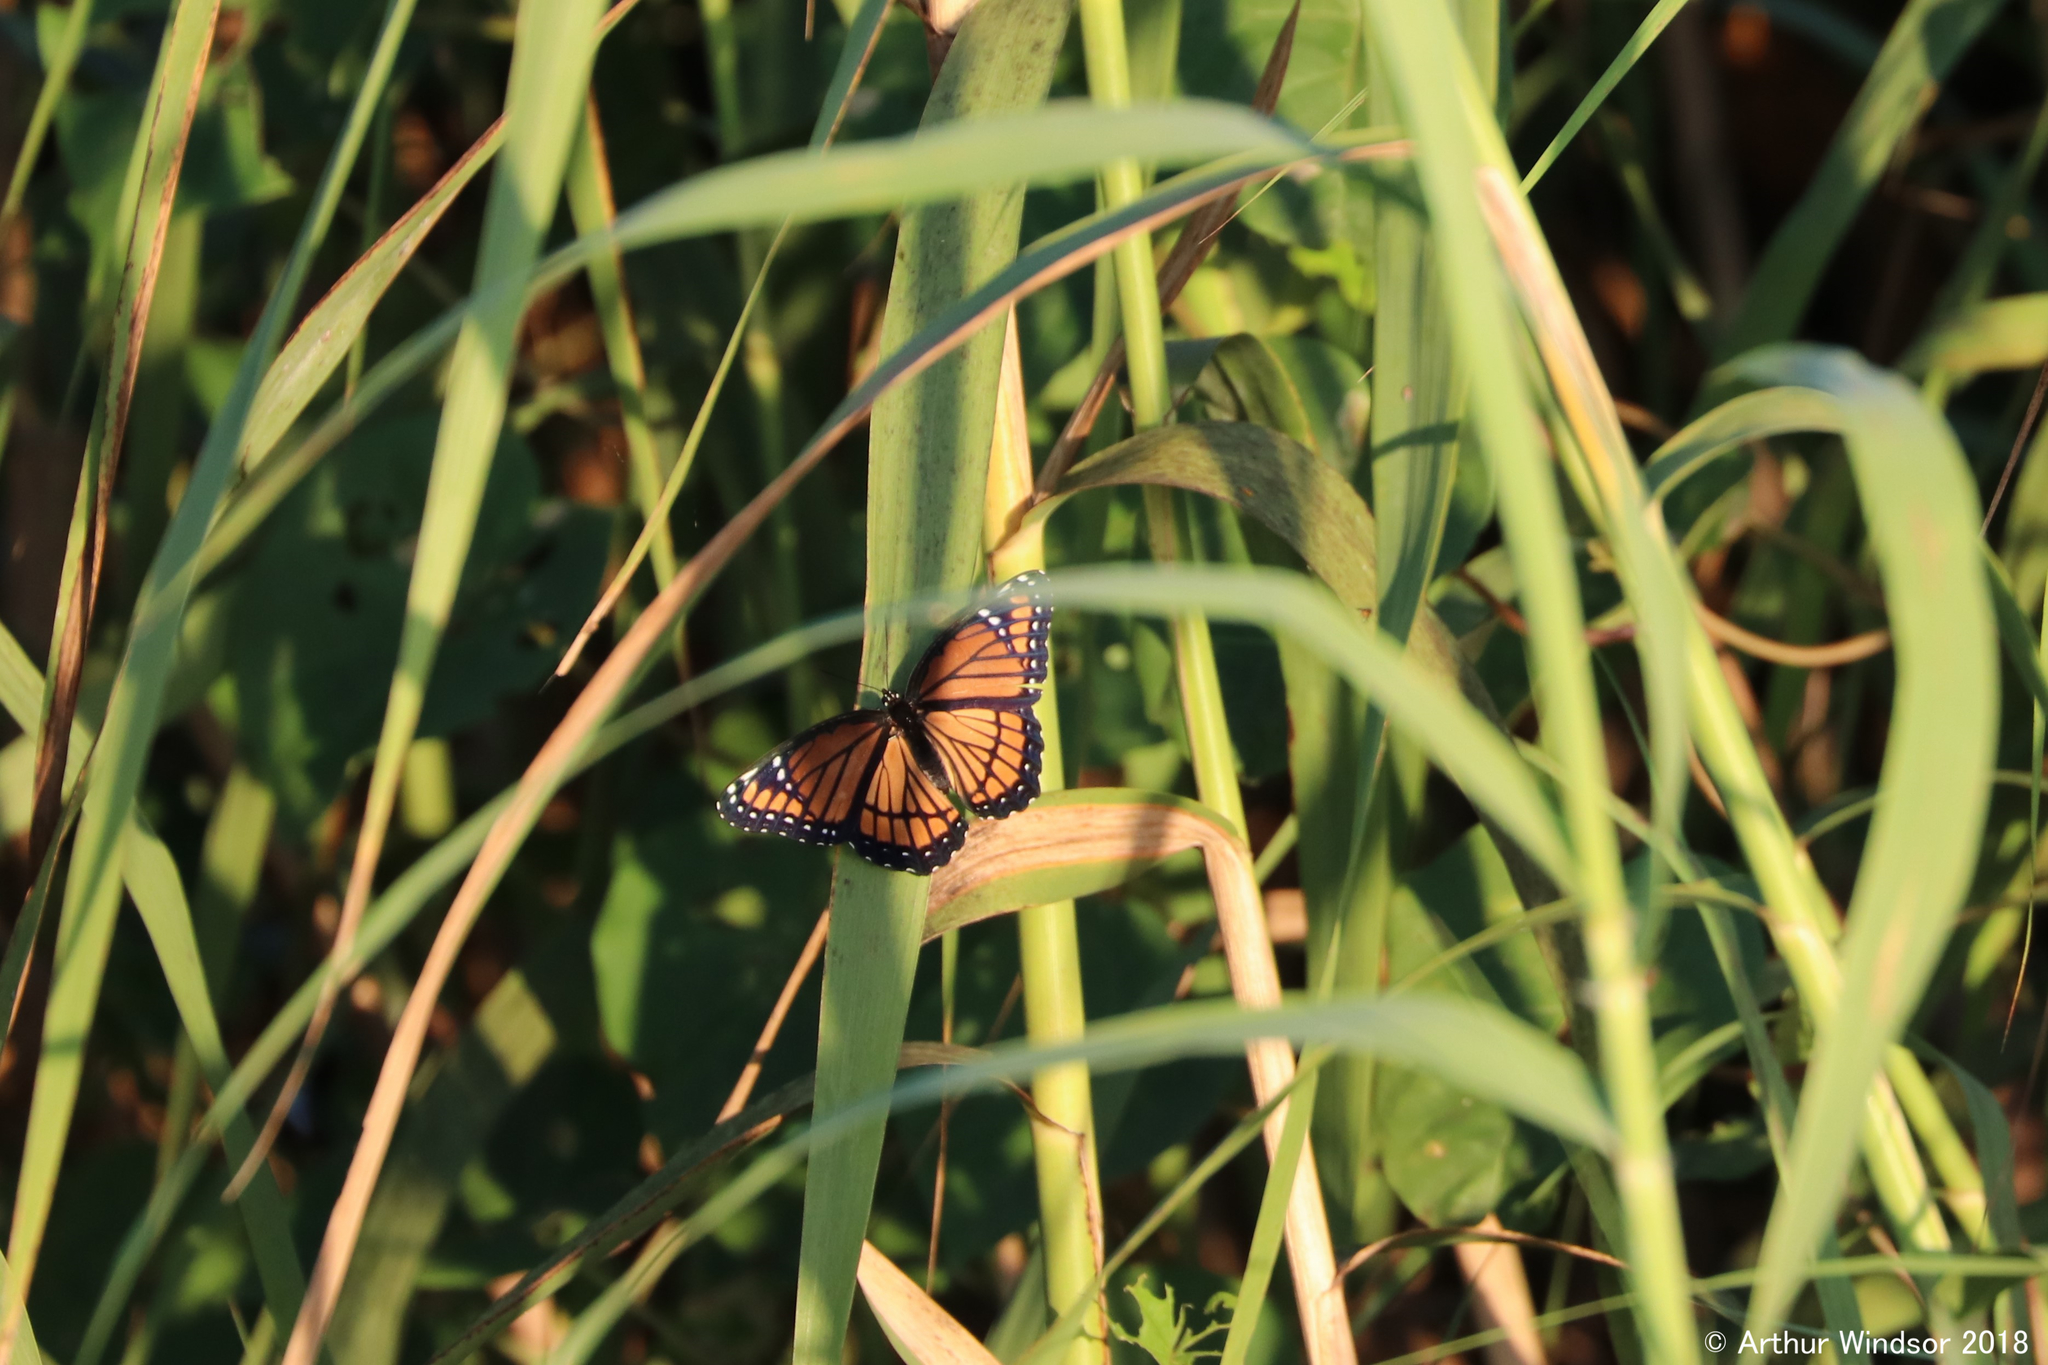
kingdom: Animalia
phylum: Arthropoda
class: Insecta
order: Lepidoptera
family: Nymphalidae
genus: Limenitis
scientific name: Limenitis archippus
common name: Viceroy
